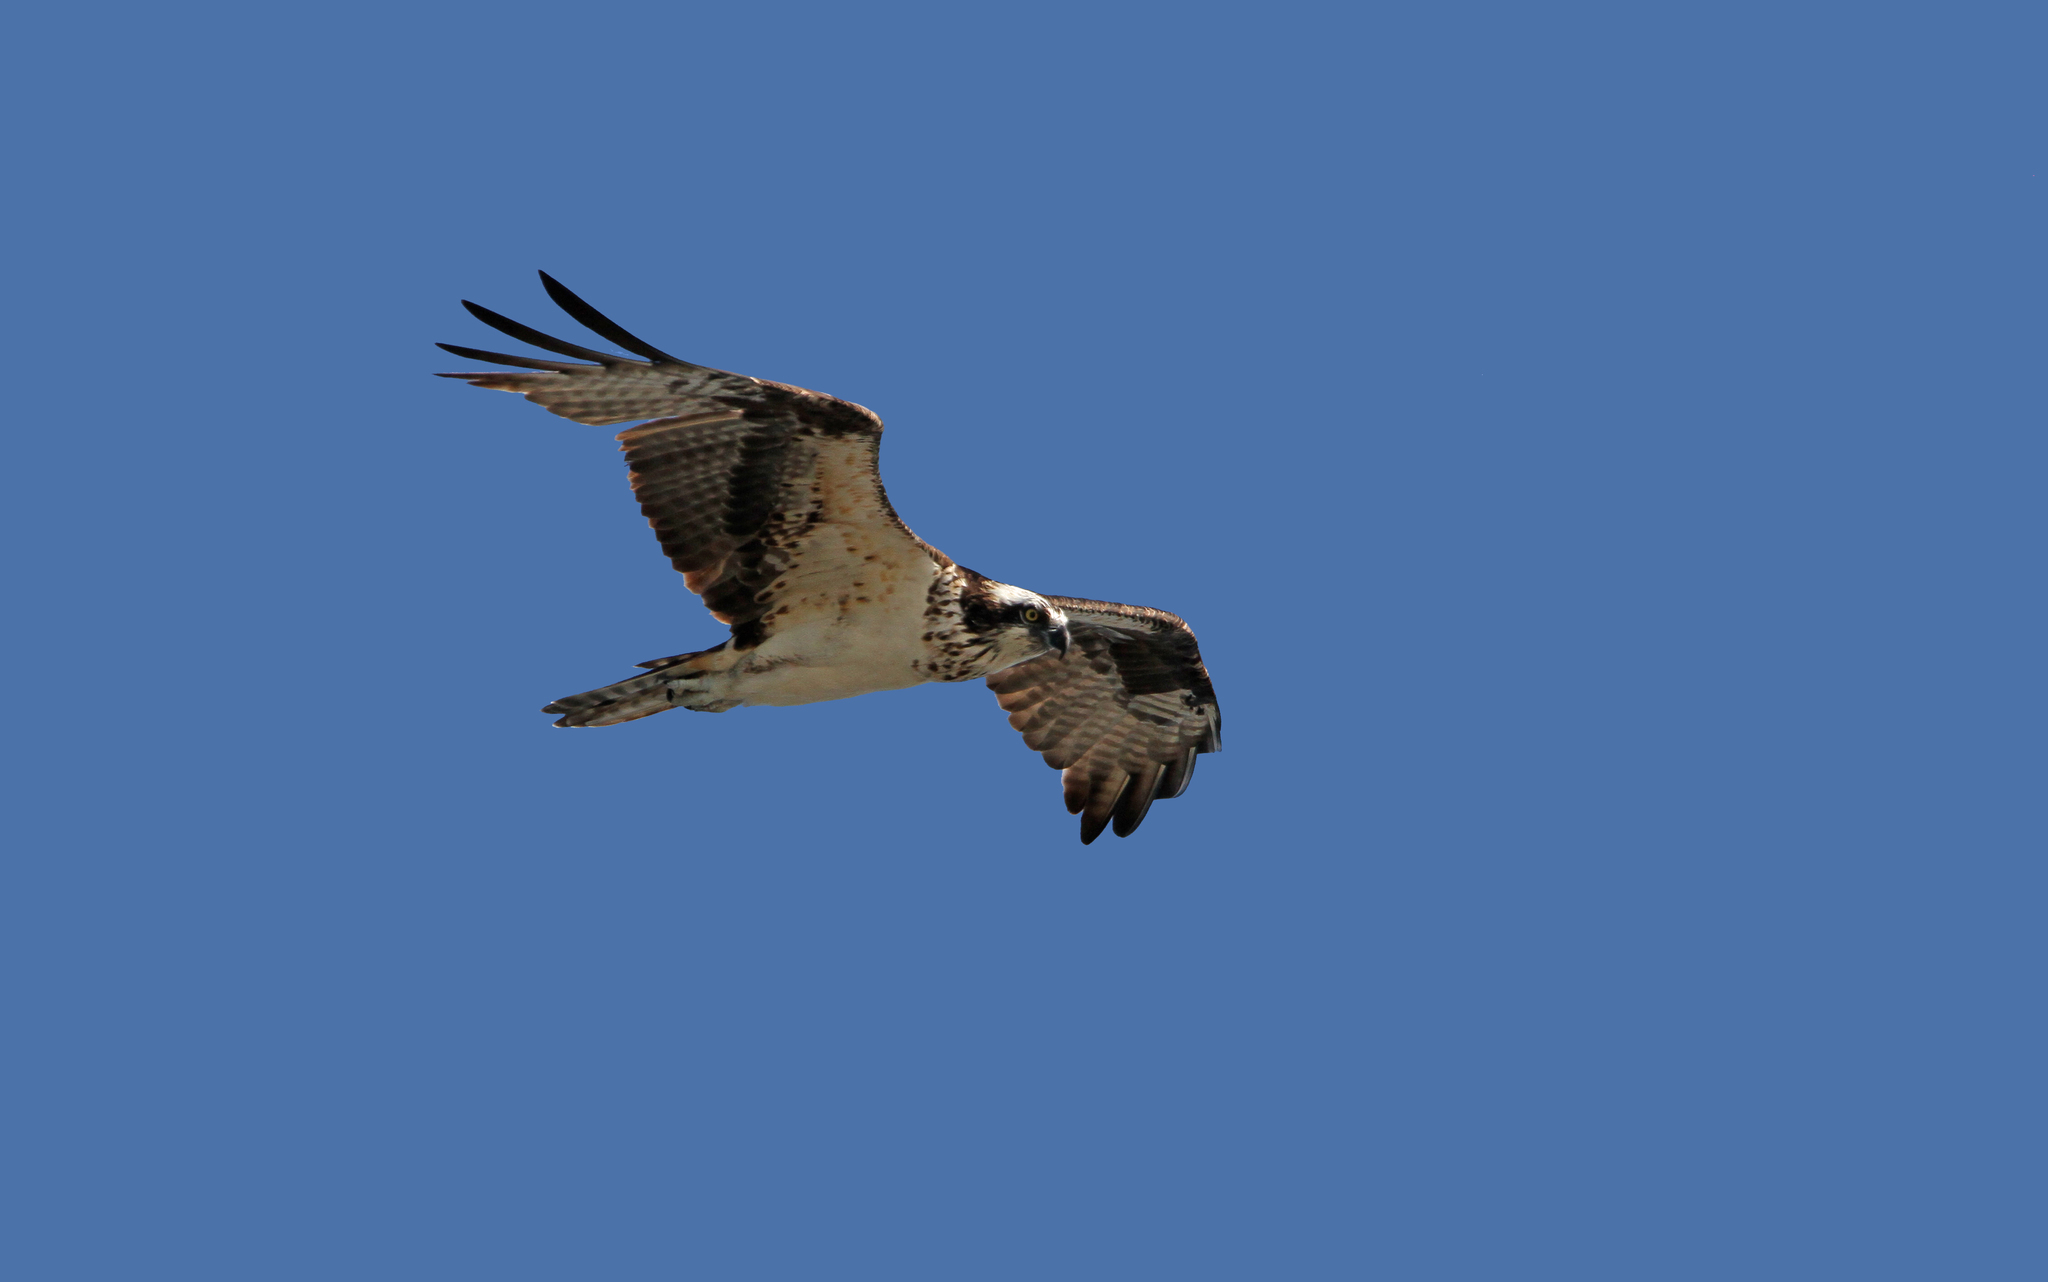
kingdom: Animalia
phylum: Chordata
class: Aves
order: Accipitriformes
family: Pandionidae
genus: Pandion
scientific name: Pandion haliaetus
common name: Osprey
